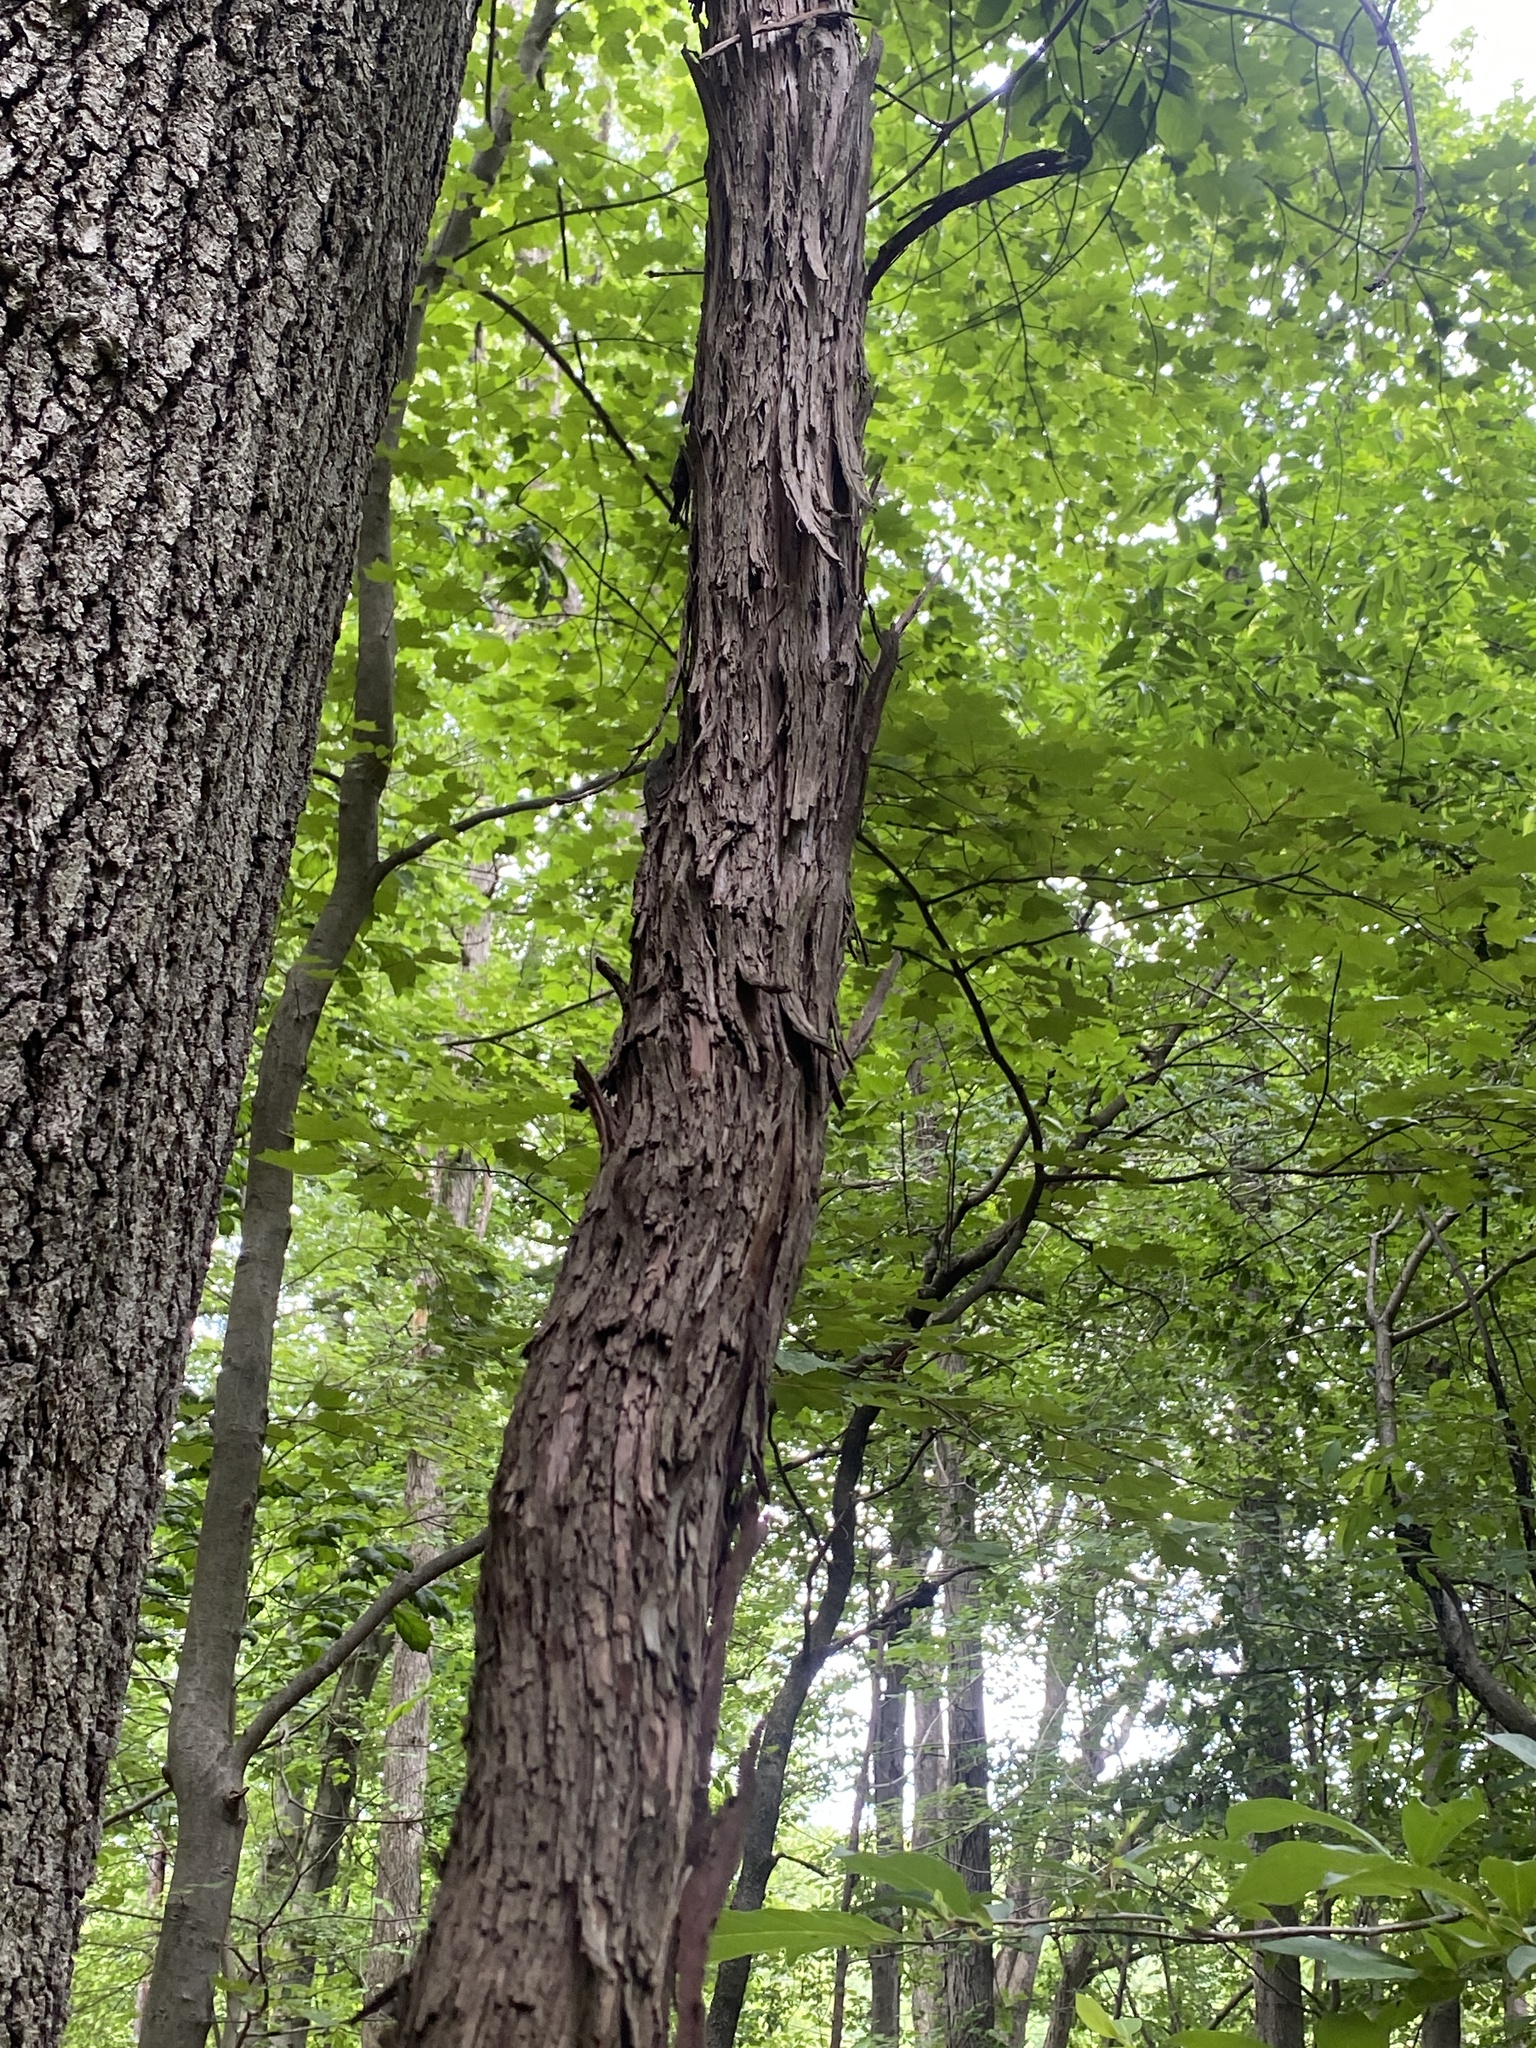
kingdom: Plantae
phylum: Tracheophyta
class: Magnoliopsida
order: Vitales
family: Vitaceae
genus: Vitis
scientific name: Vitis
